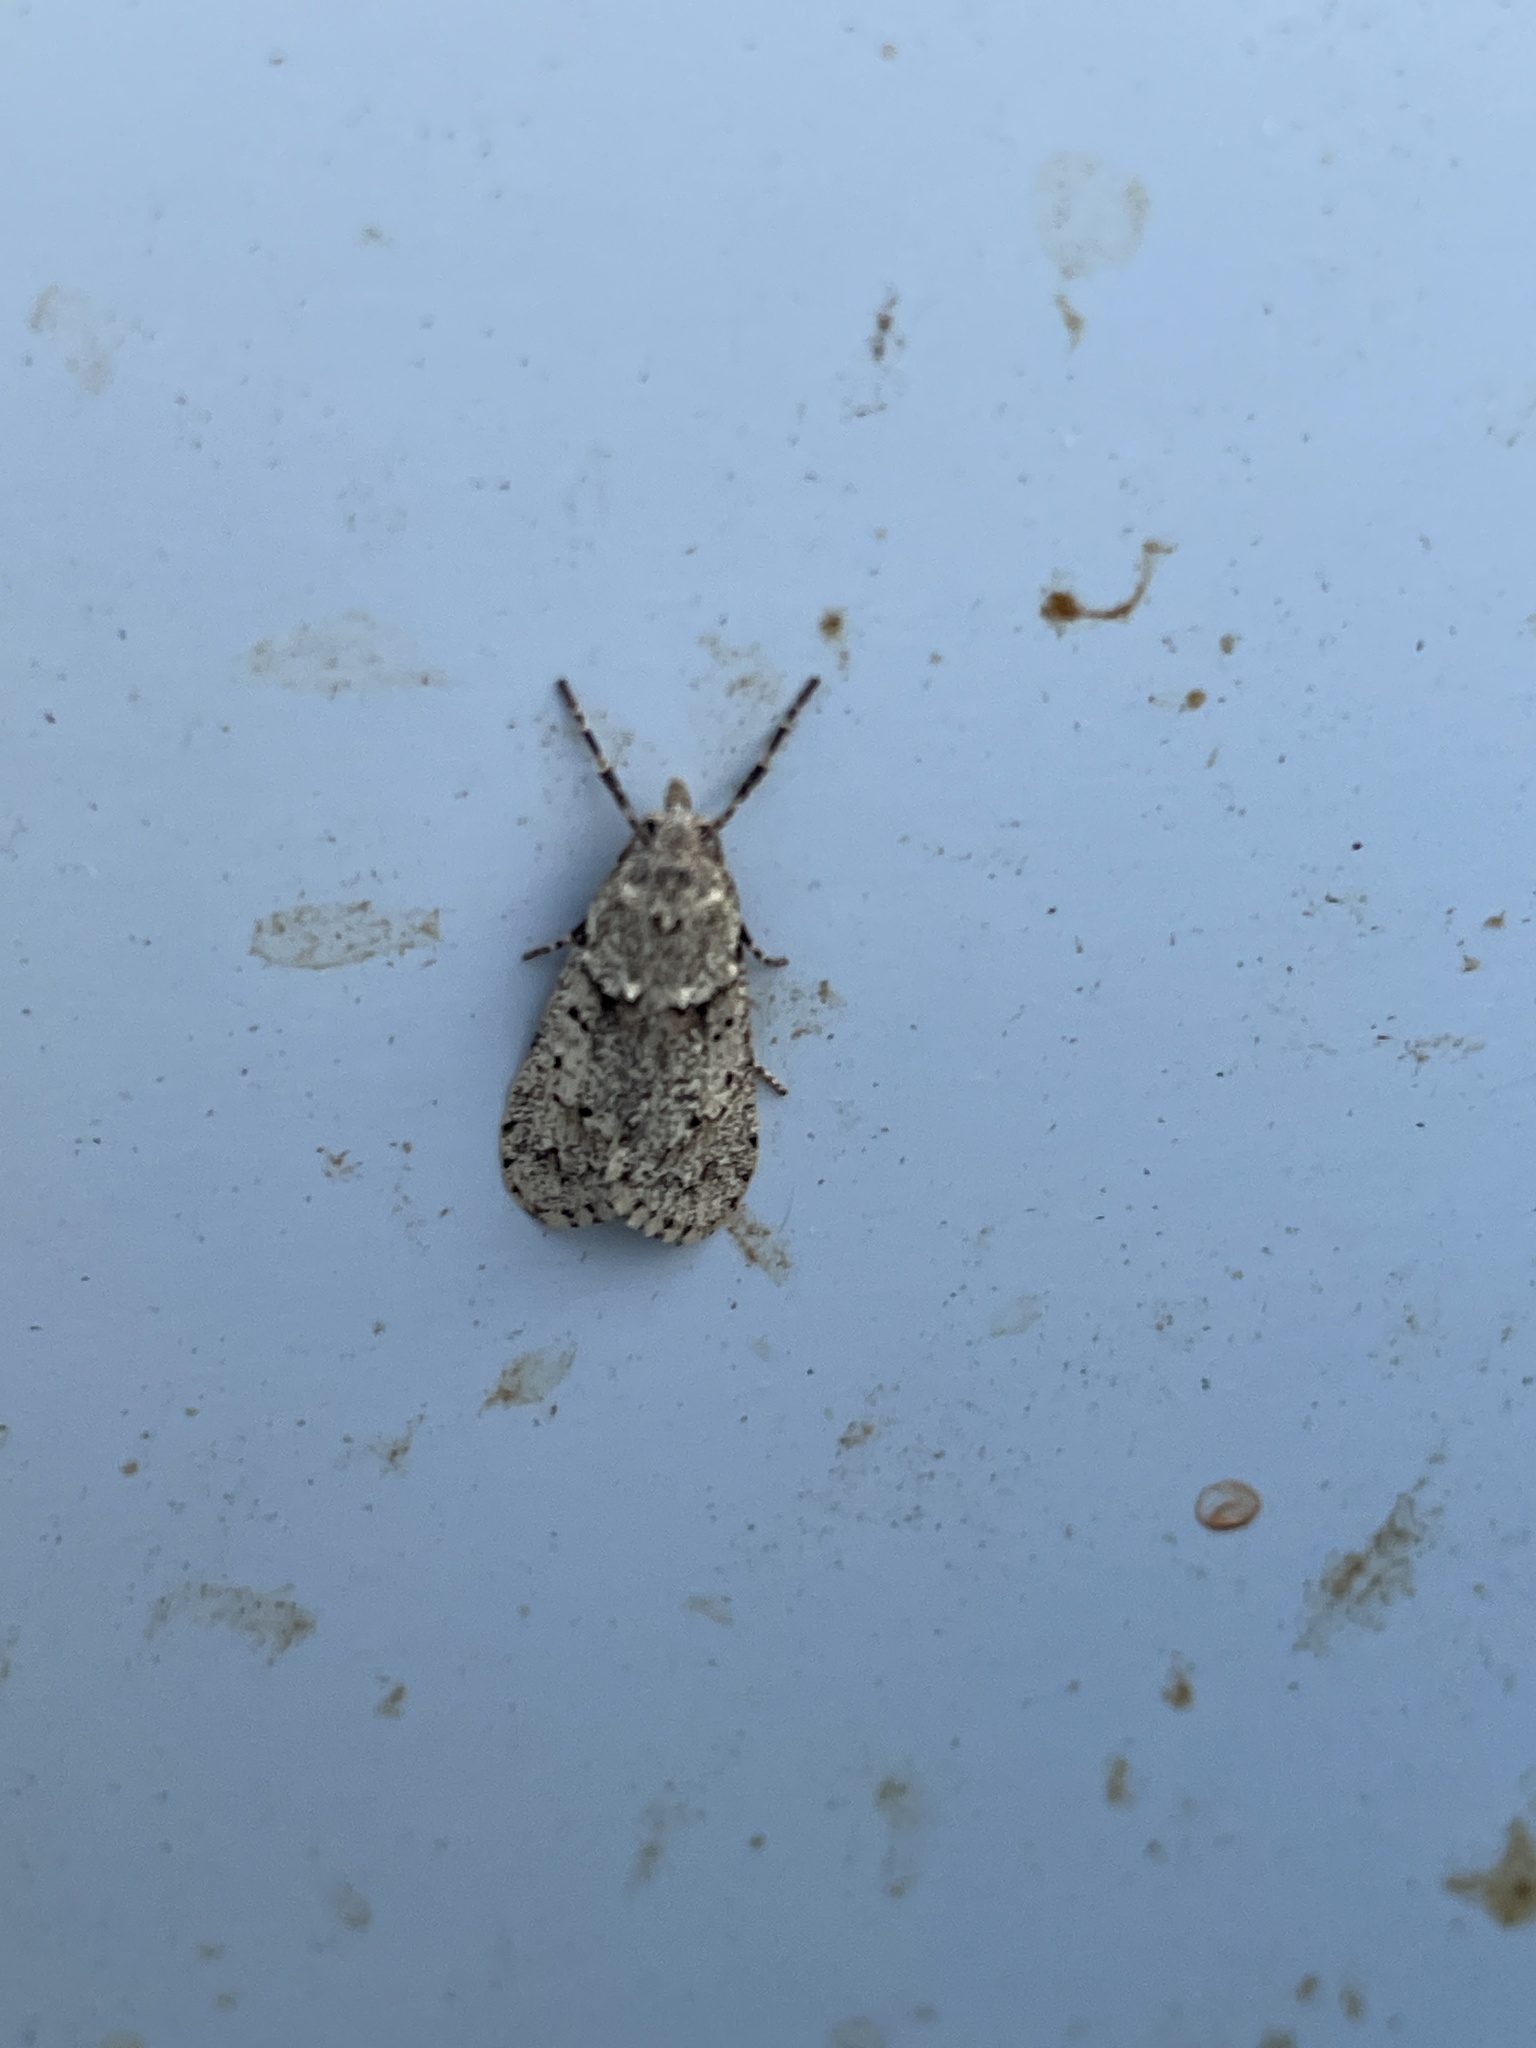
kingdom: Animalia
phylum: Arthropoda
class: Insecta
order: Lepidoptera
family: Lypusidae
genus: Diurnea
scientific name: Diurnea fagella
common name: March tubic
